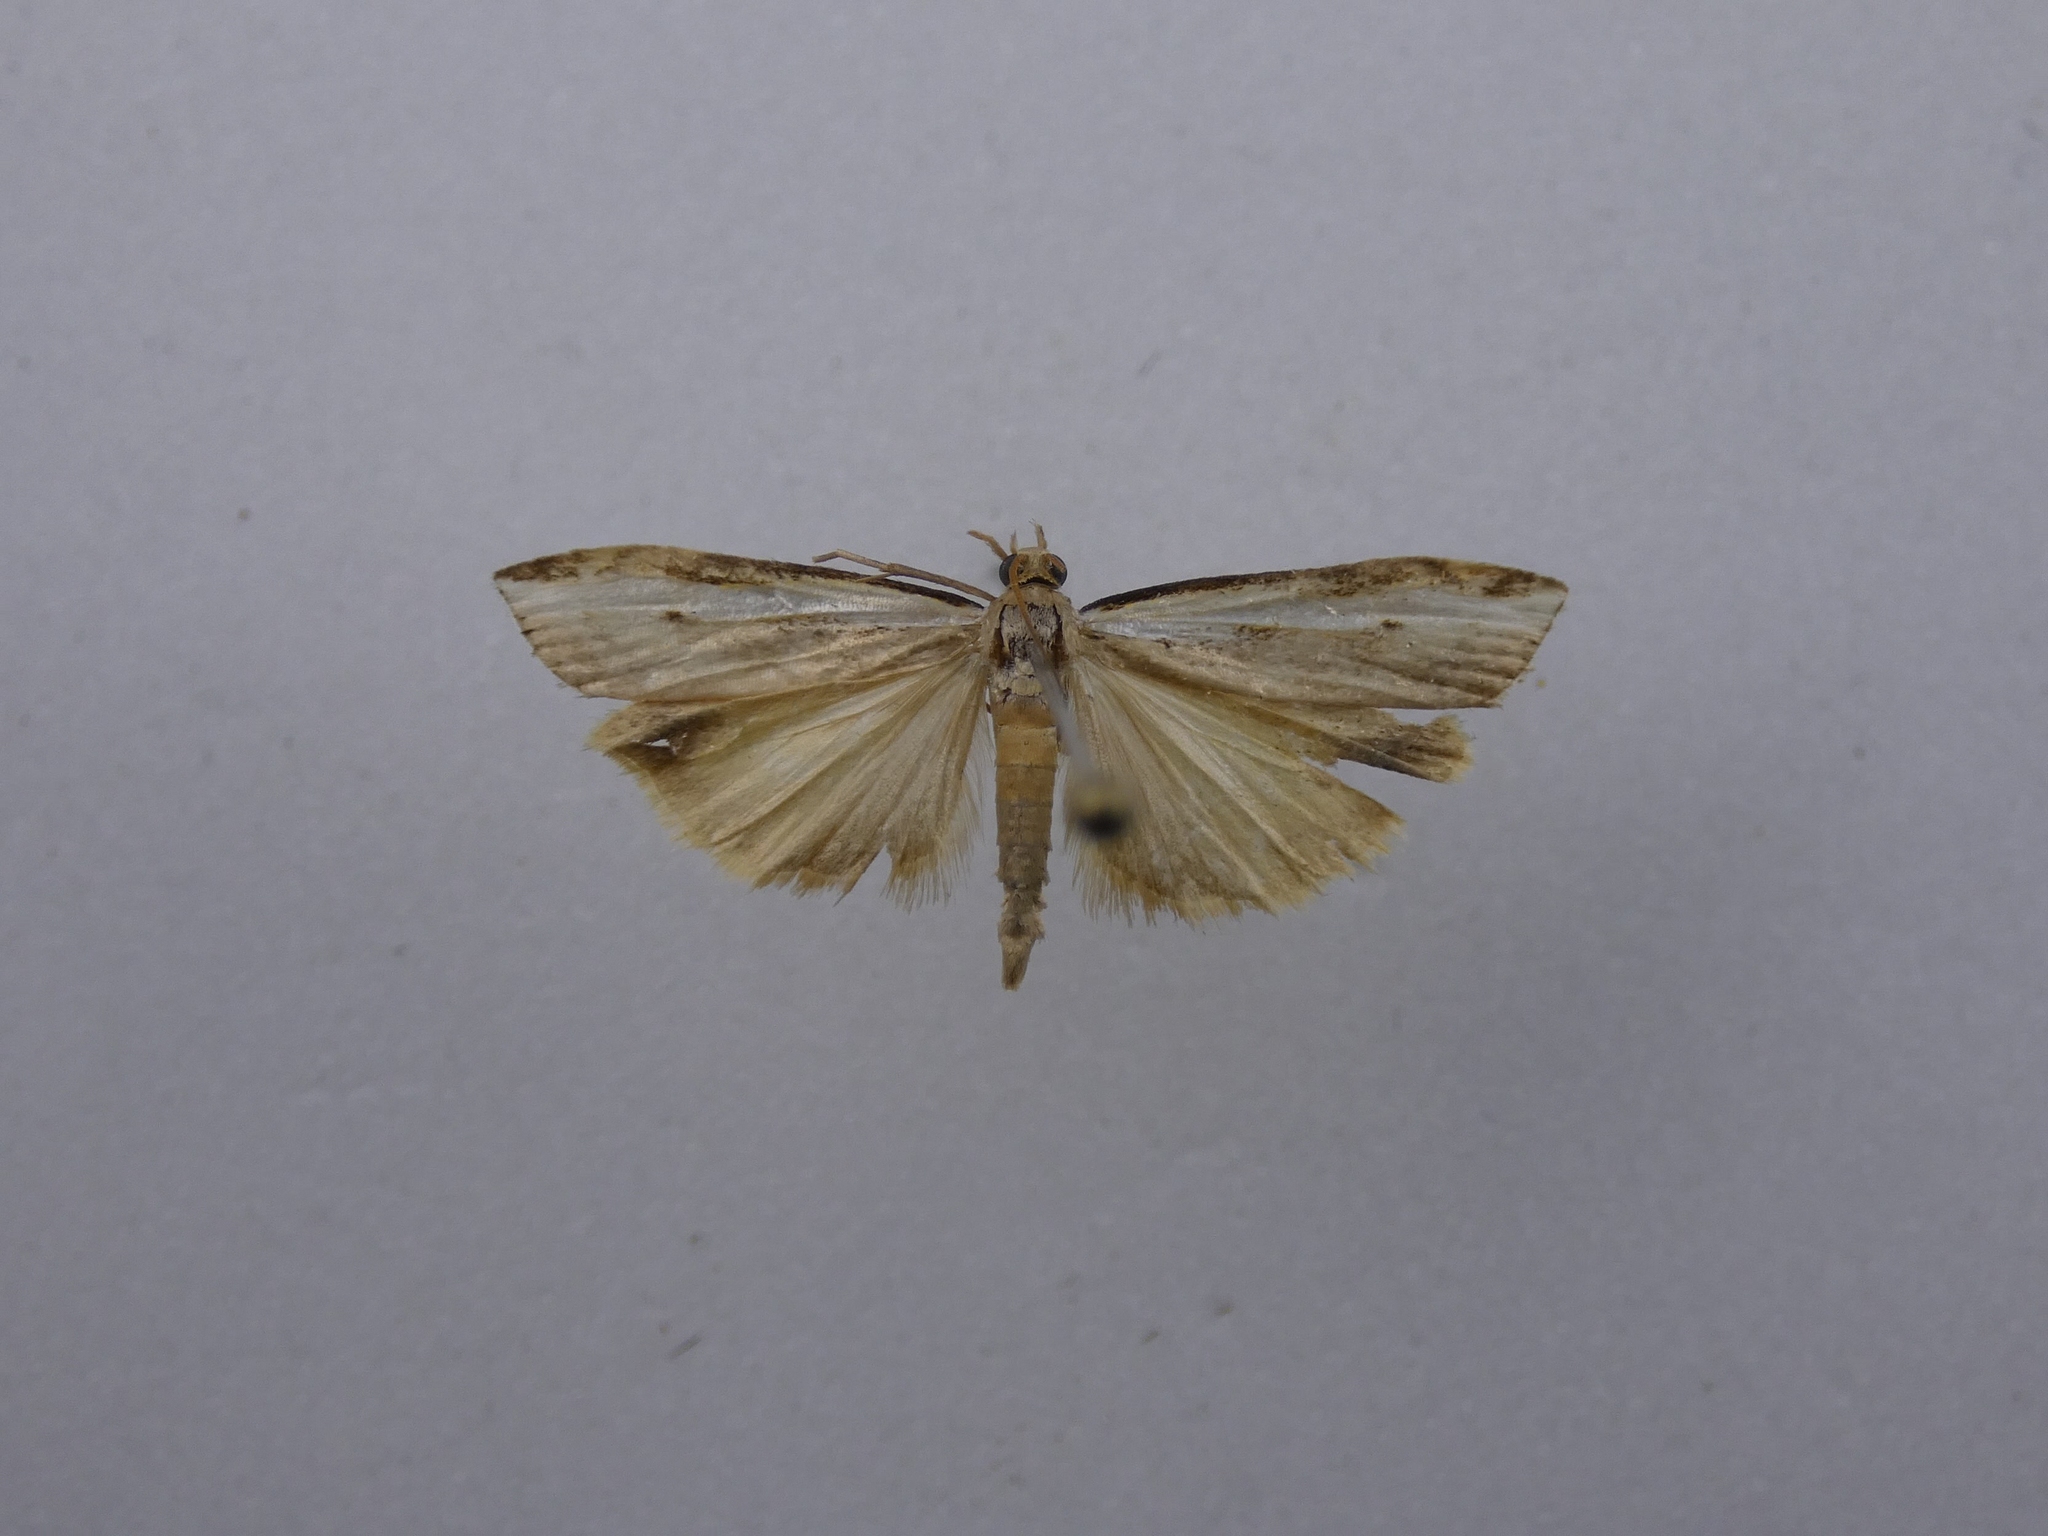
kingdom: Animalia
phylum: Arthropoda
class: Insecta
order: Lepidoptera
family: Crambidae
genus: Orocrambus
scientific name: Orocrambus flexuosellus
